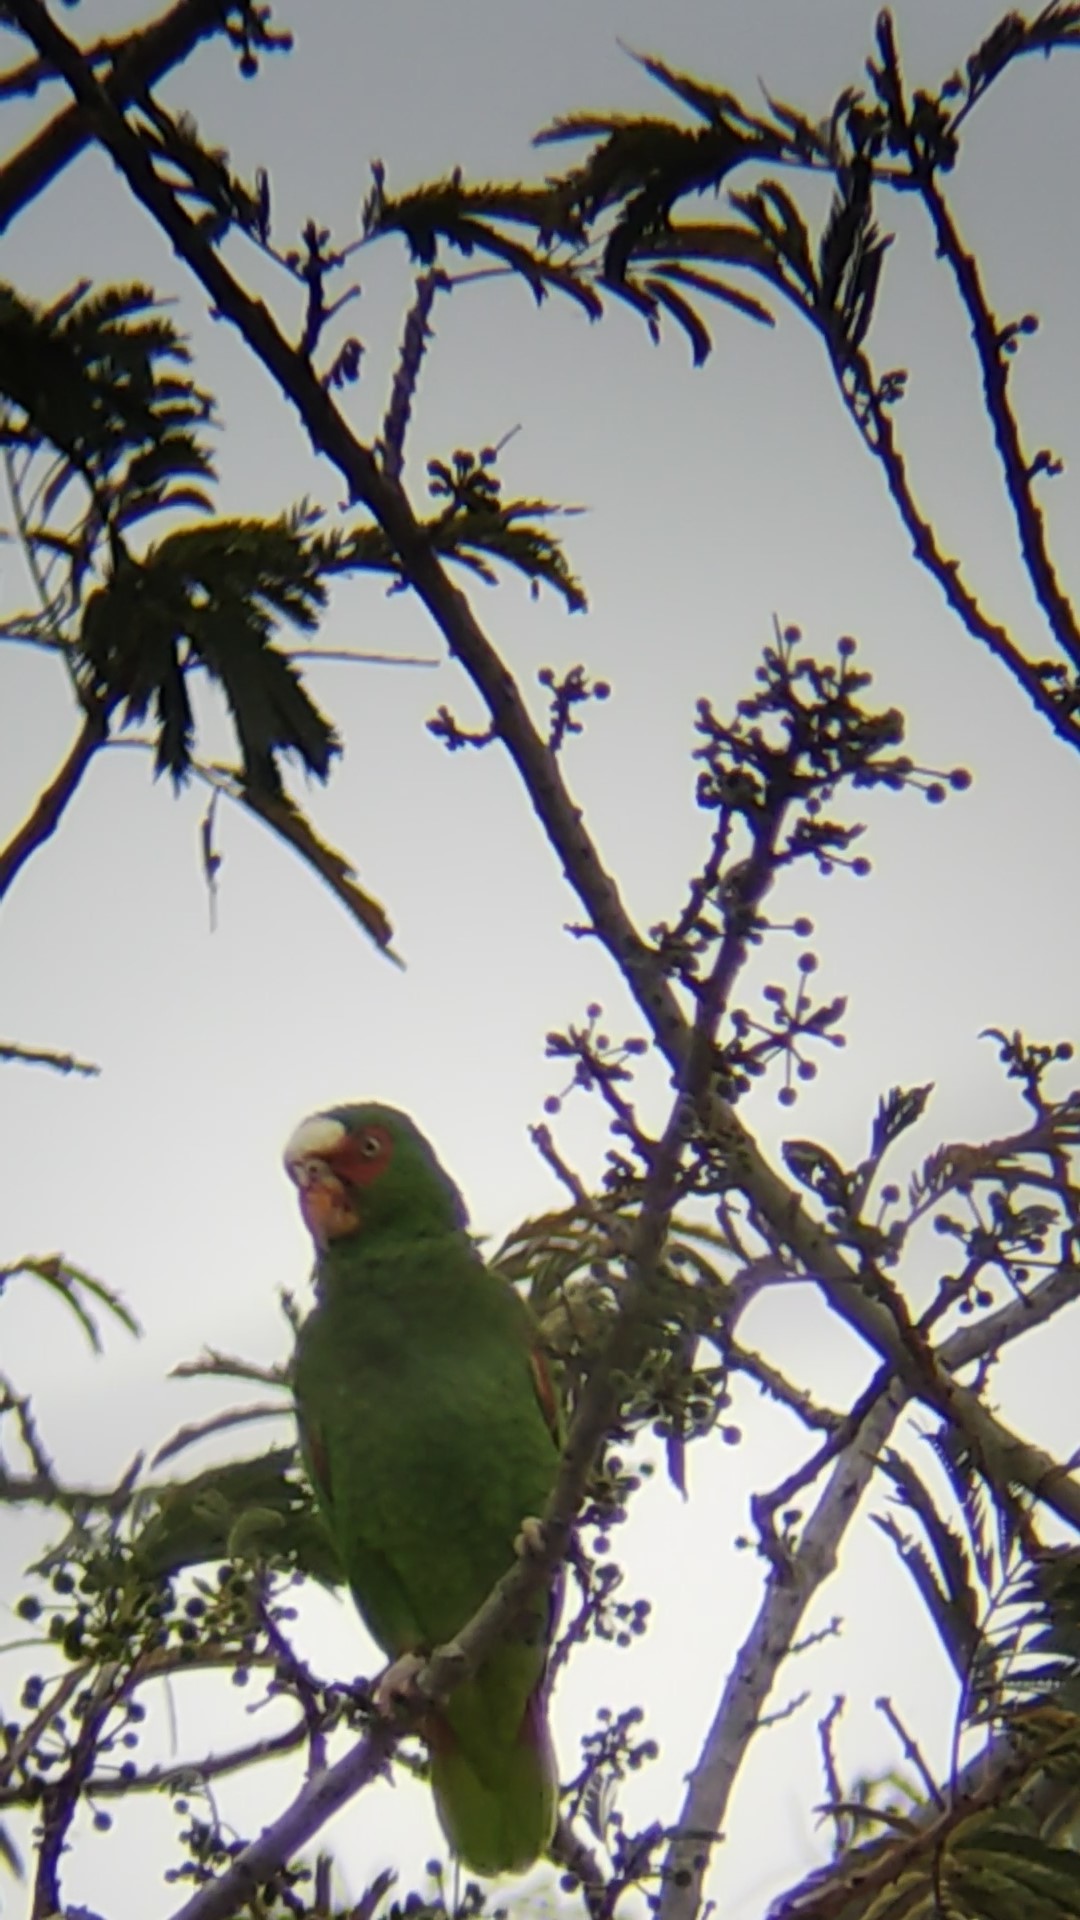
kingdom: Animalia
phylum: Chordata
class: Aves
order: Psittaciformes
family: Psittacidae
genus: Amazona
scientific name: Amazona albifrons
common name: White-fronted amazon
